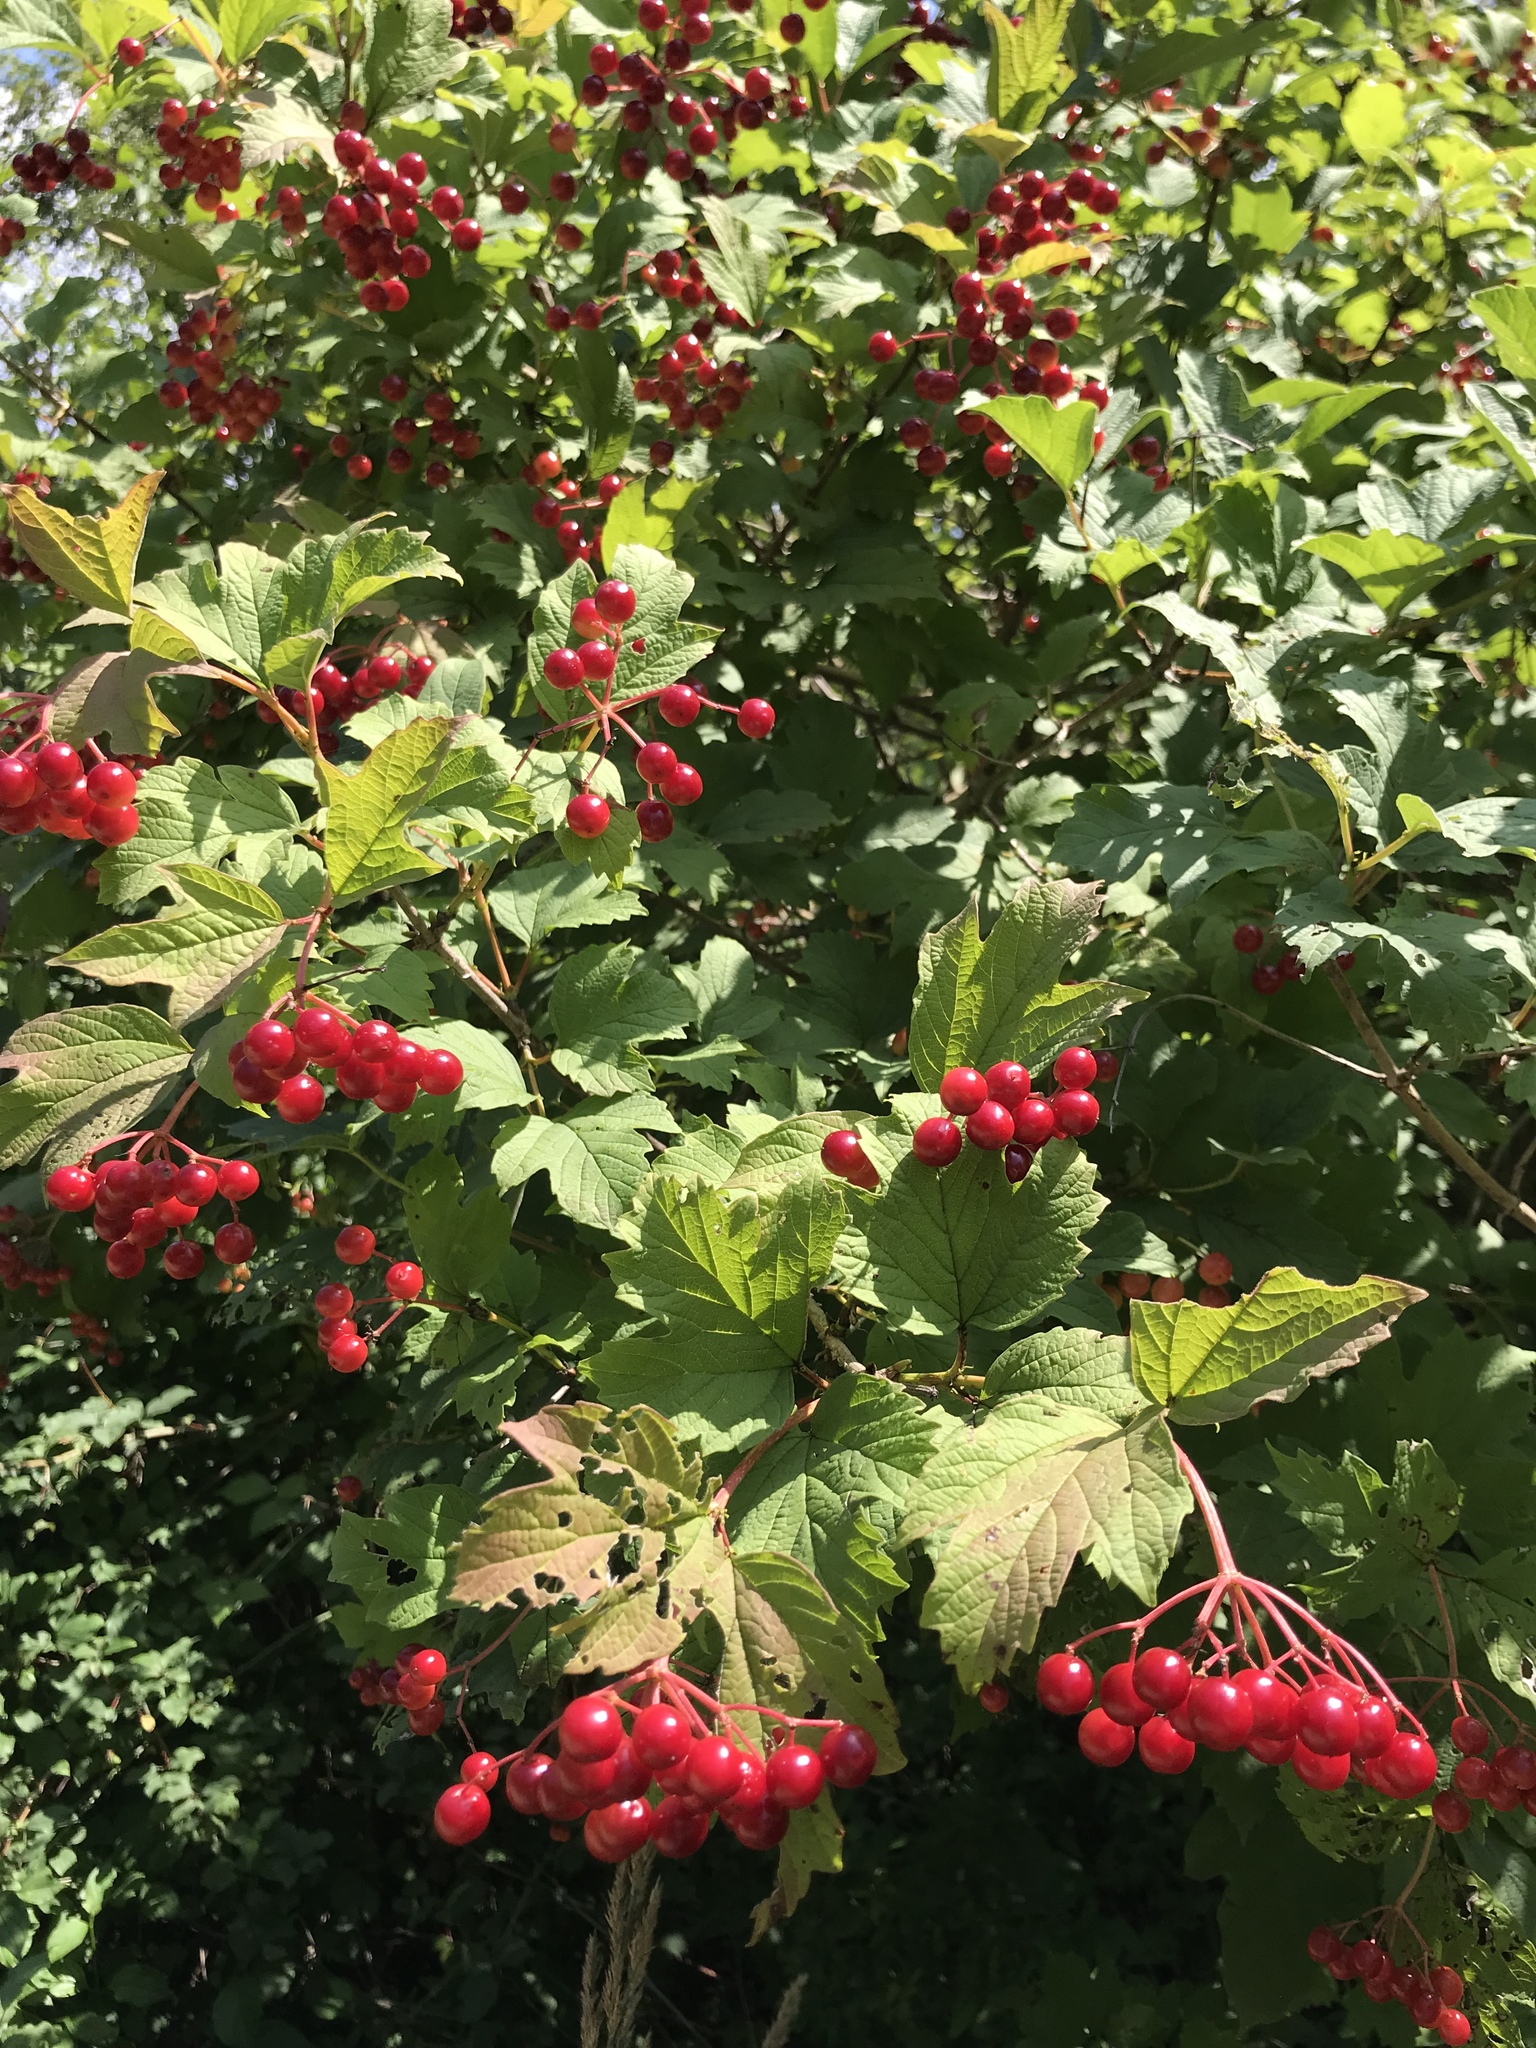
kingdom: Plantae
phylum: Tracheophyta
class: Magnoliopsida
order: Dipsacales
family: Viburnaceae
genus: Viburnum
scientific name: Viburnum opulus
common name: Guelder-rose
